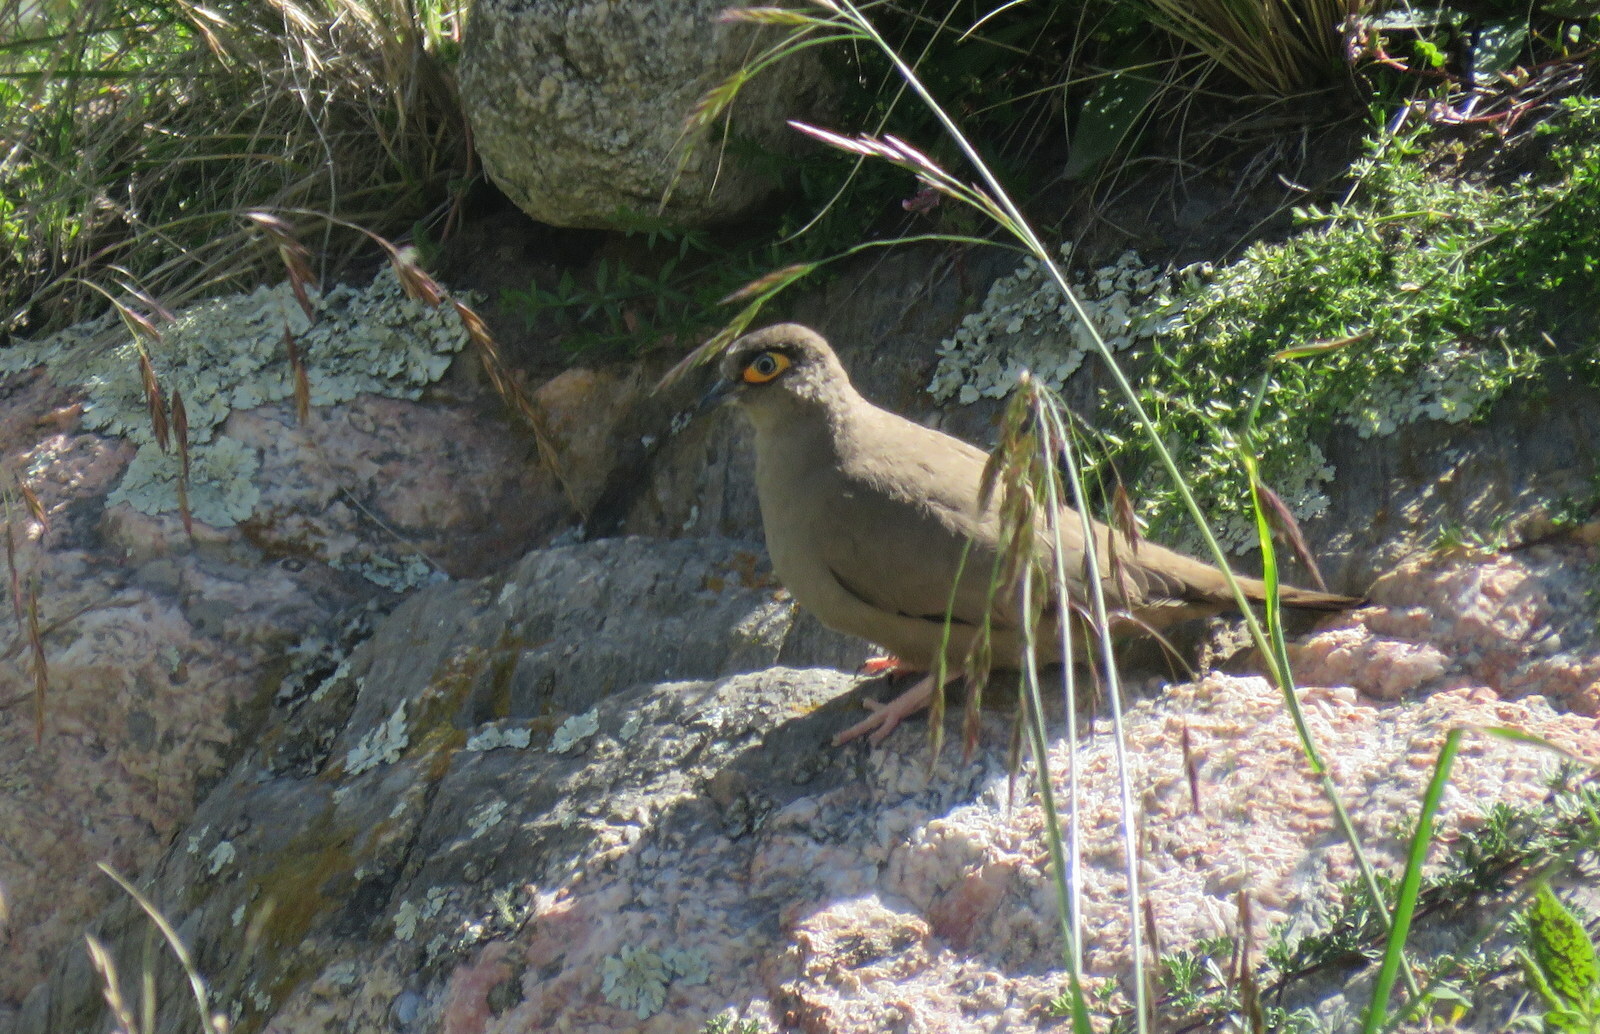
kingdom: Animalia
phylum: Chordata
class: Aves
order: Columbiformes
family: Columbidae
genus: Metriopelia
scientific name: Metriopelia morenoi
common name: Moreno's ground dove
